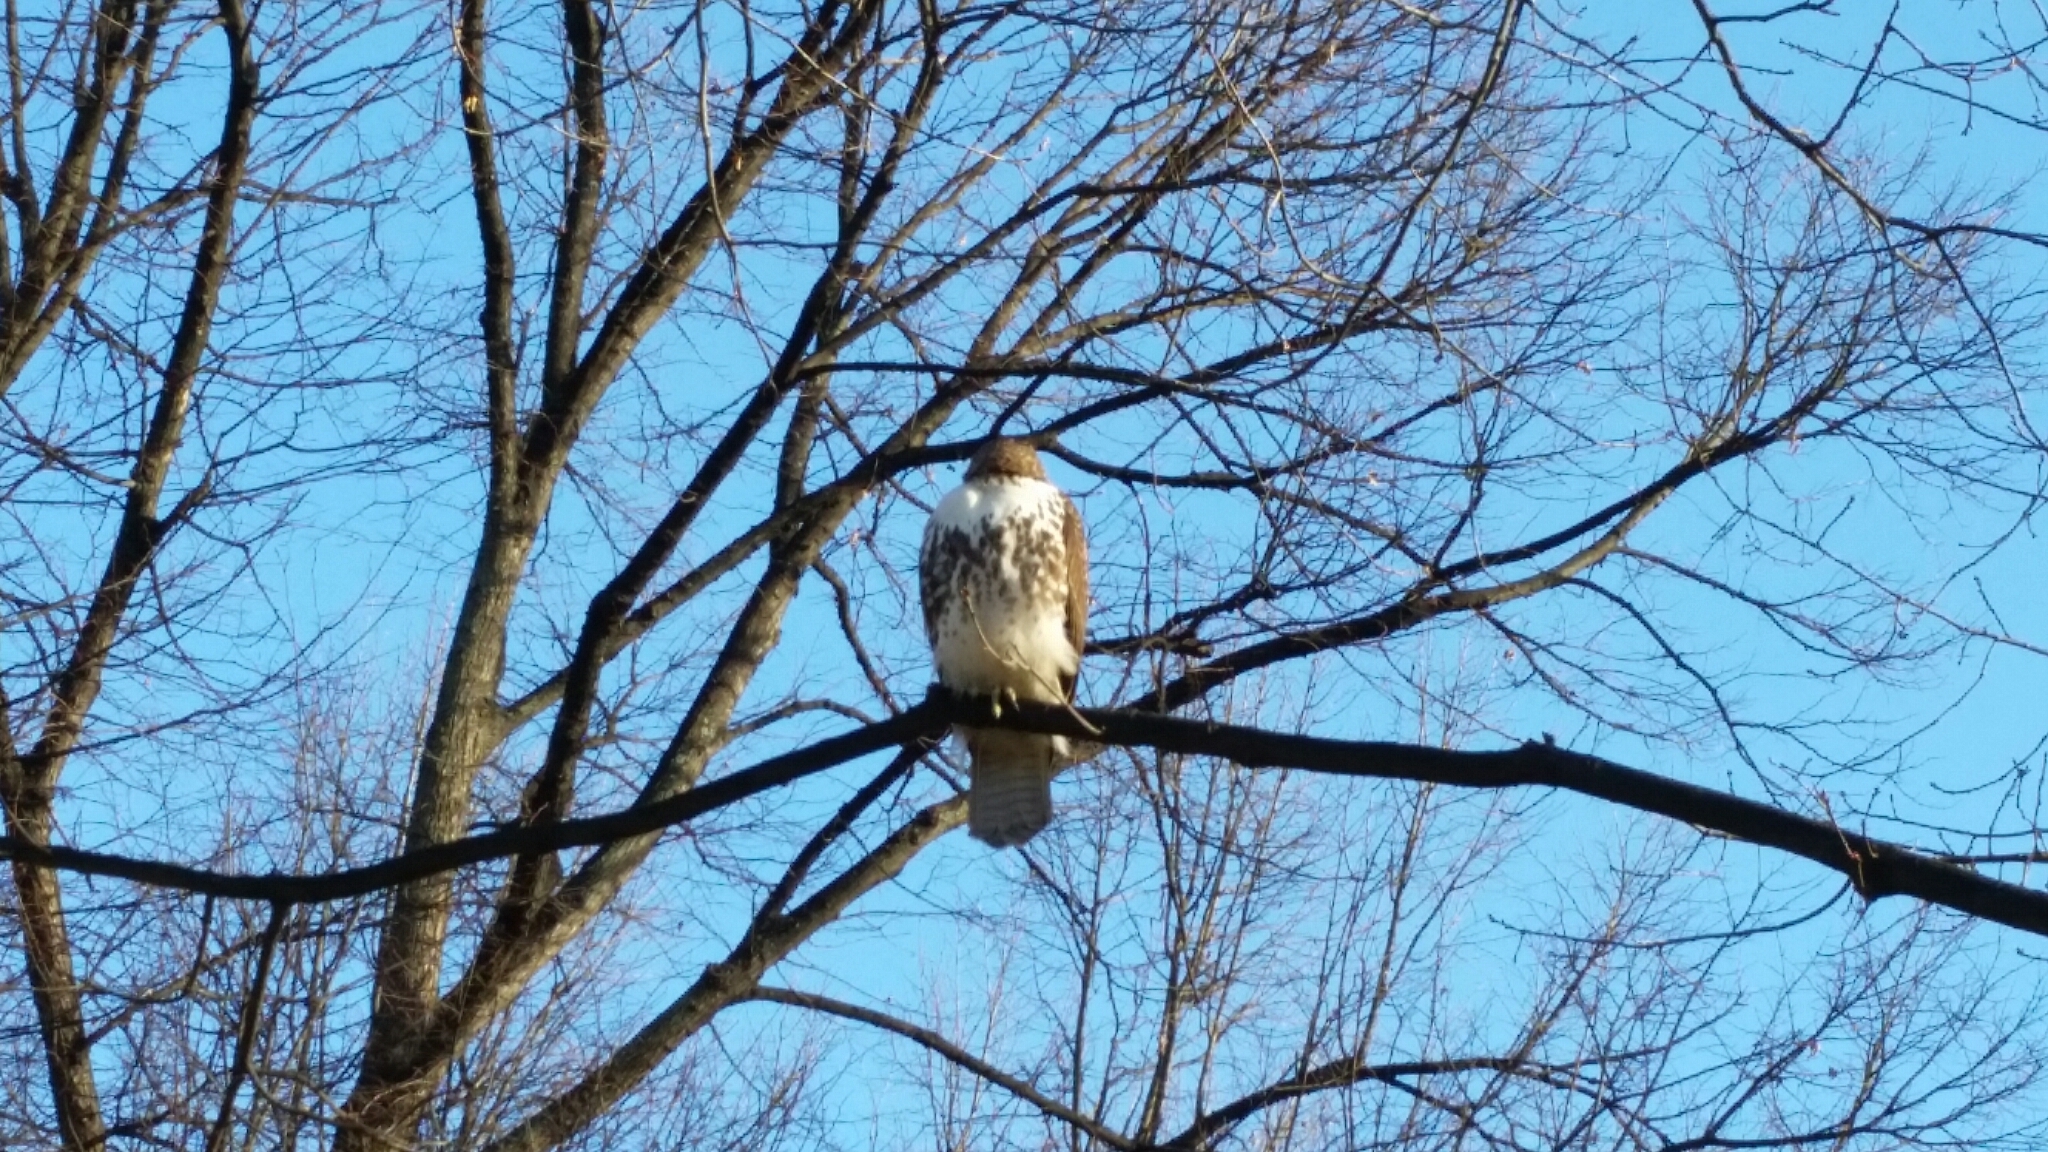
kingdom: Animalia
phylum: Chordata
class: Aves
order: Accipitriformes
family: Accipitridae
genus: Buteo
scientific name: Buteo jamaicensis
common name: Red-tailed hawk
